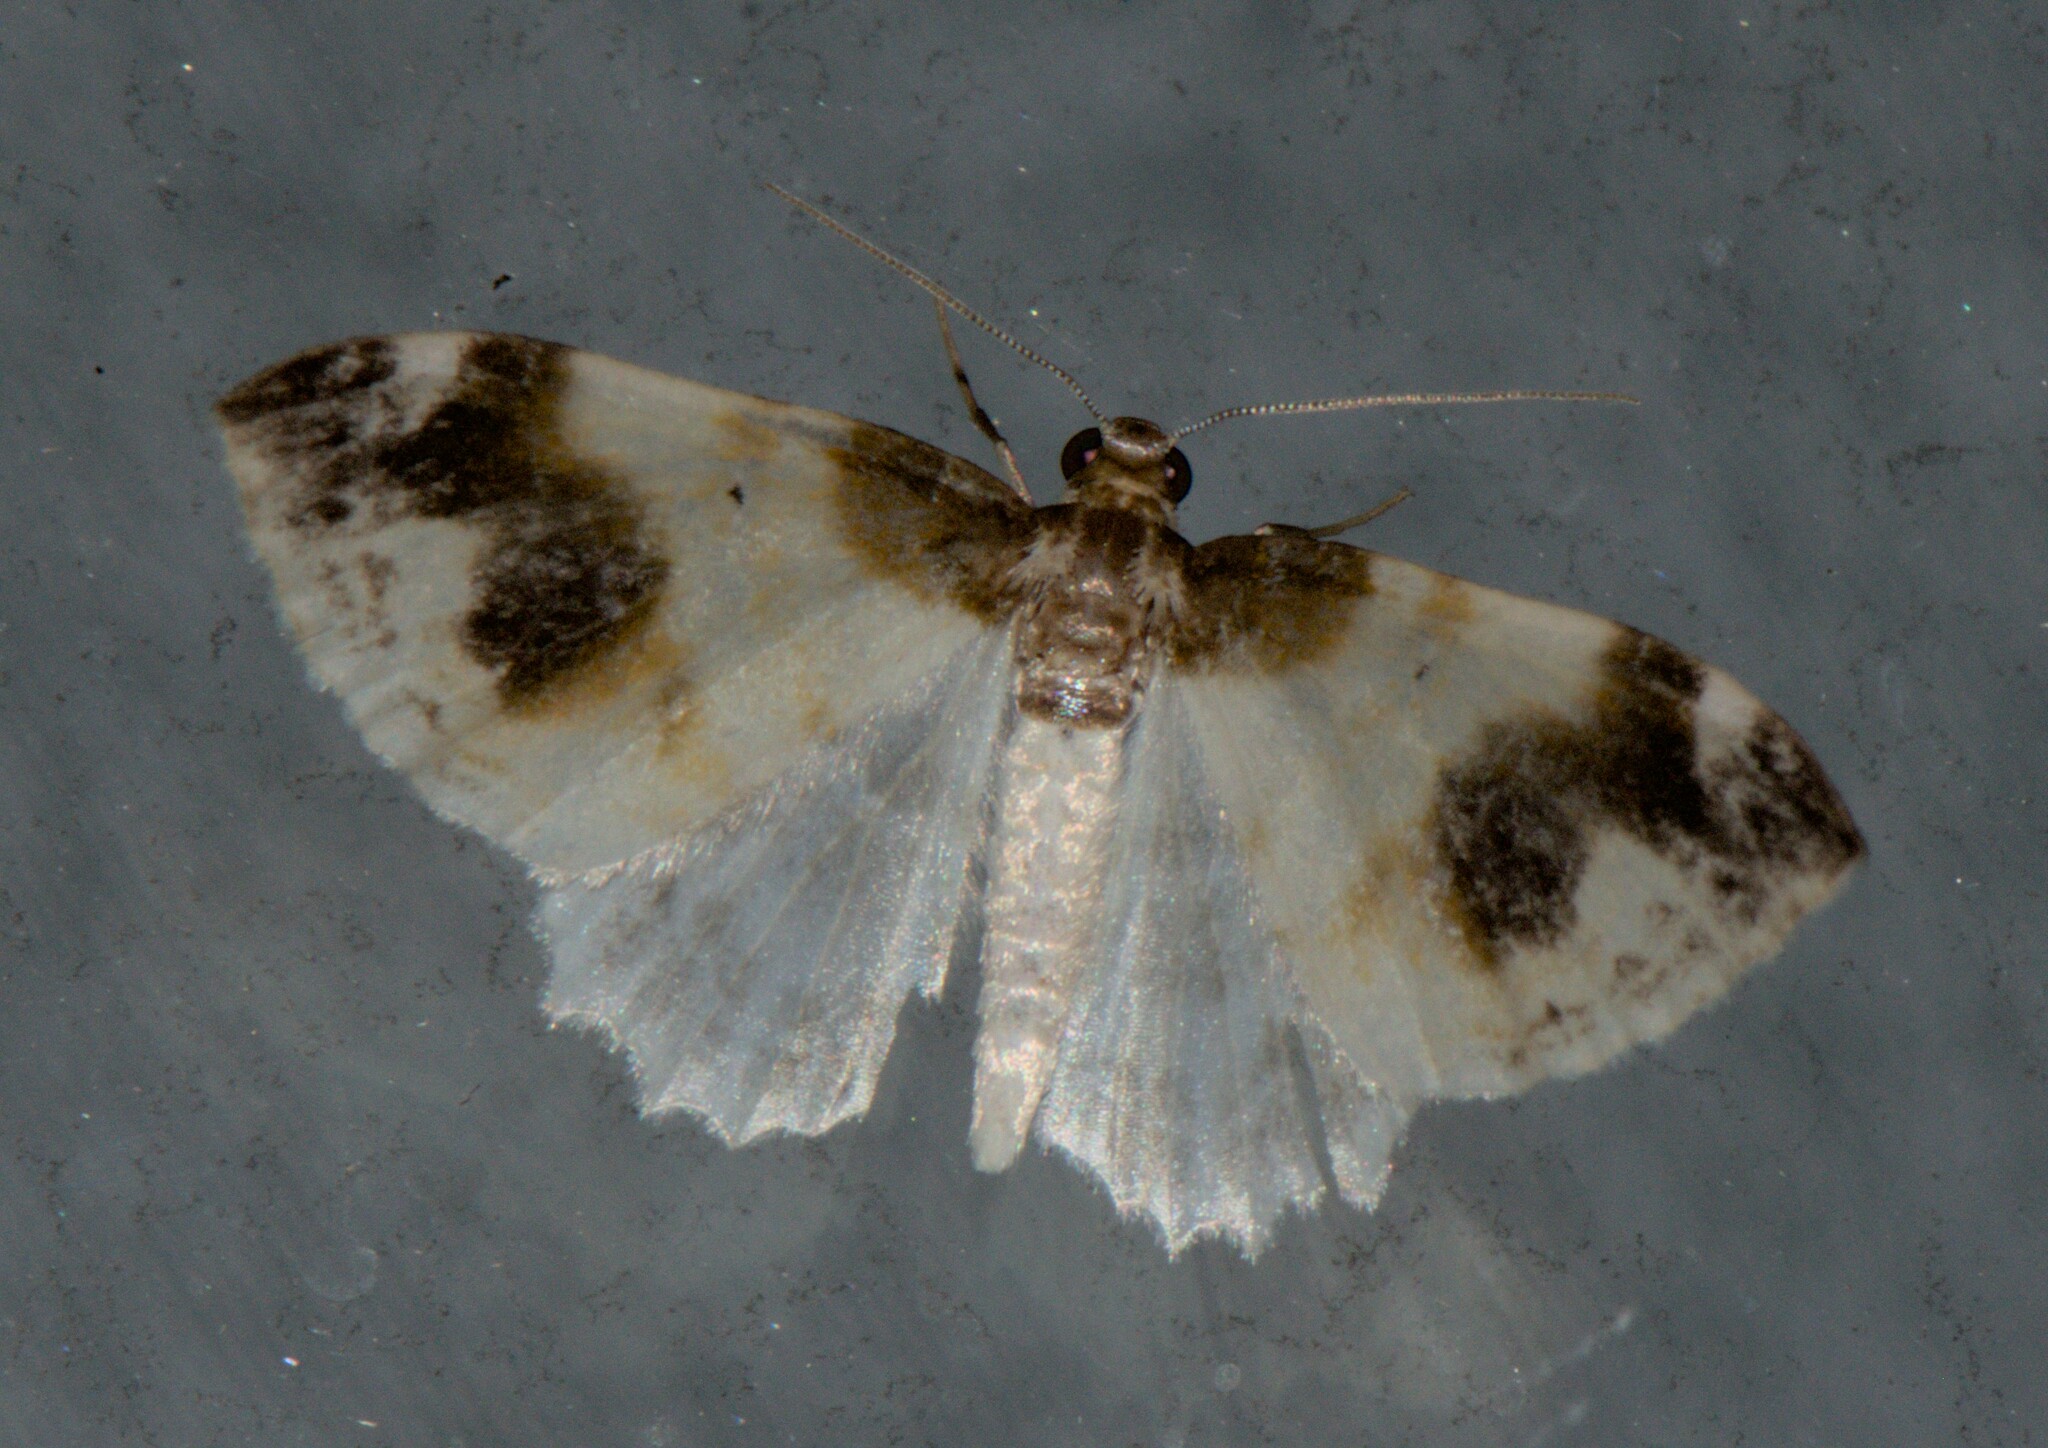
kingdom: Animalia
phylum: Arthropoda
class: Insecta
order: Lepidoptera
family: Geometridae
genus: Agnibesa
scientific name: Agnibesa pictaria
